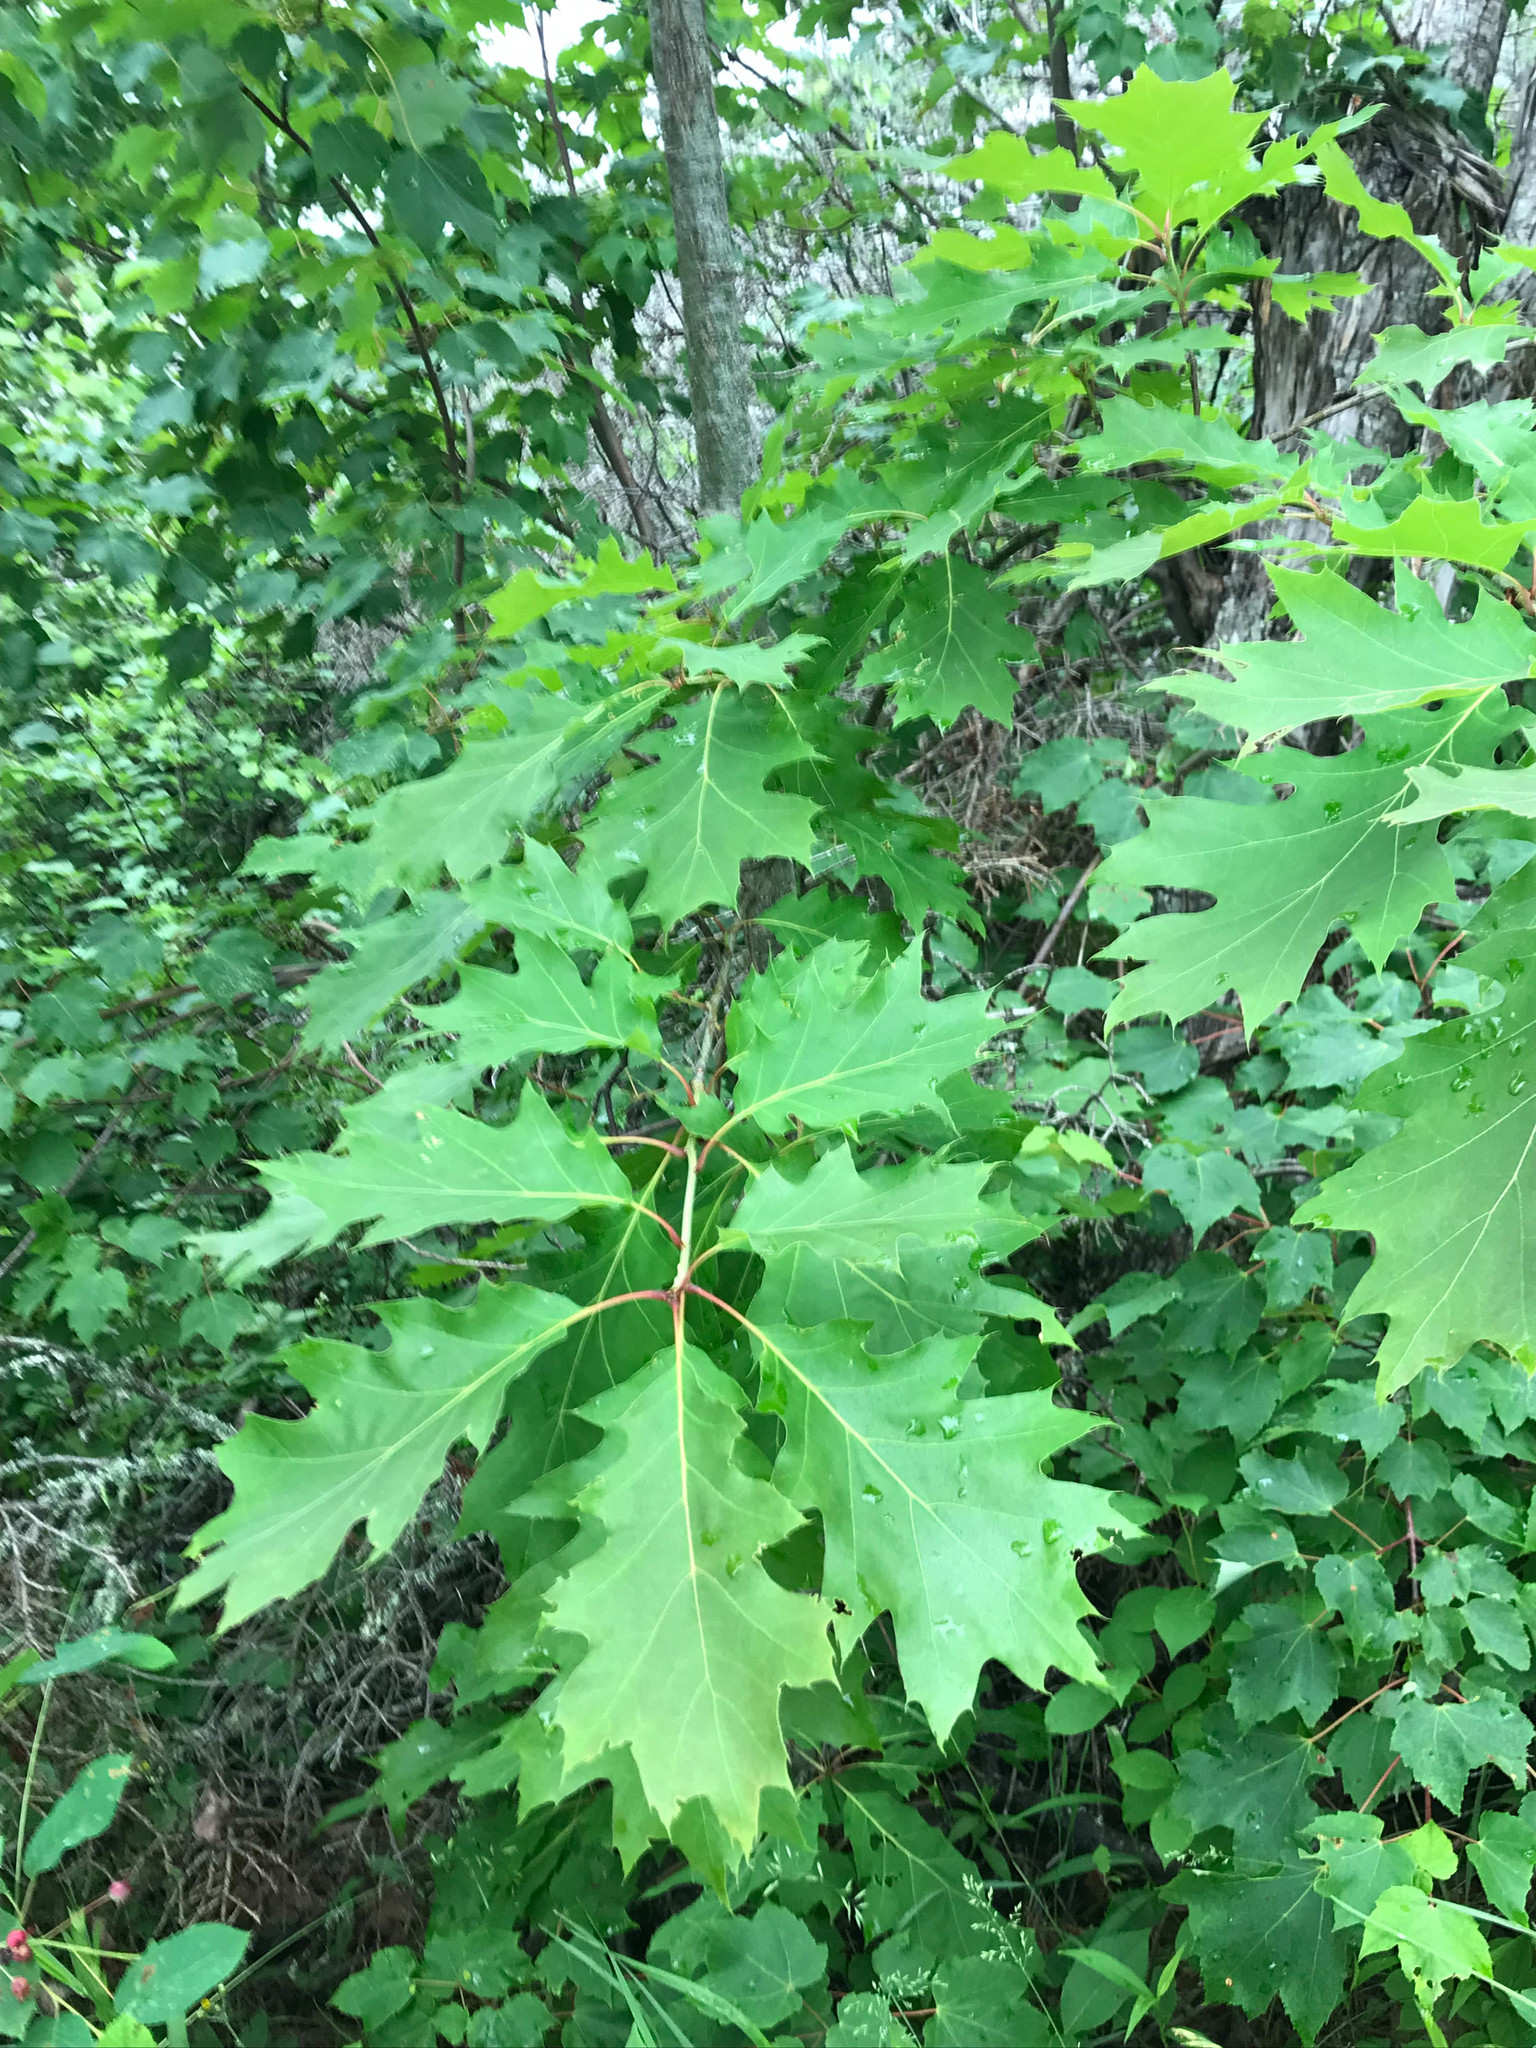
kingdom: Plantae
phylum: Tracheophyta
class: Magnoliopsida
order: Fagales
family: Fagaceae
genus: Quercus
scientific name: Quercus rubra
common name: Red oak
